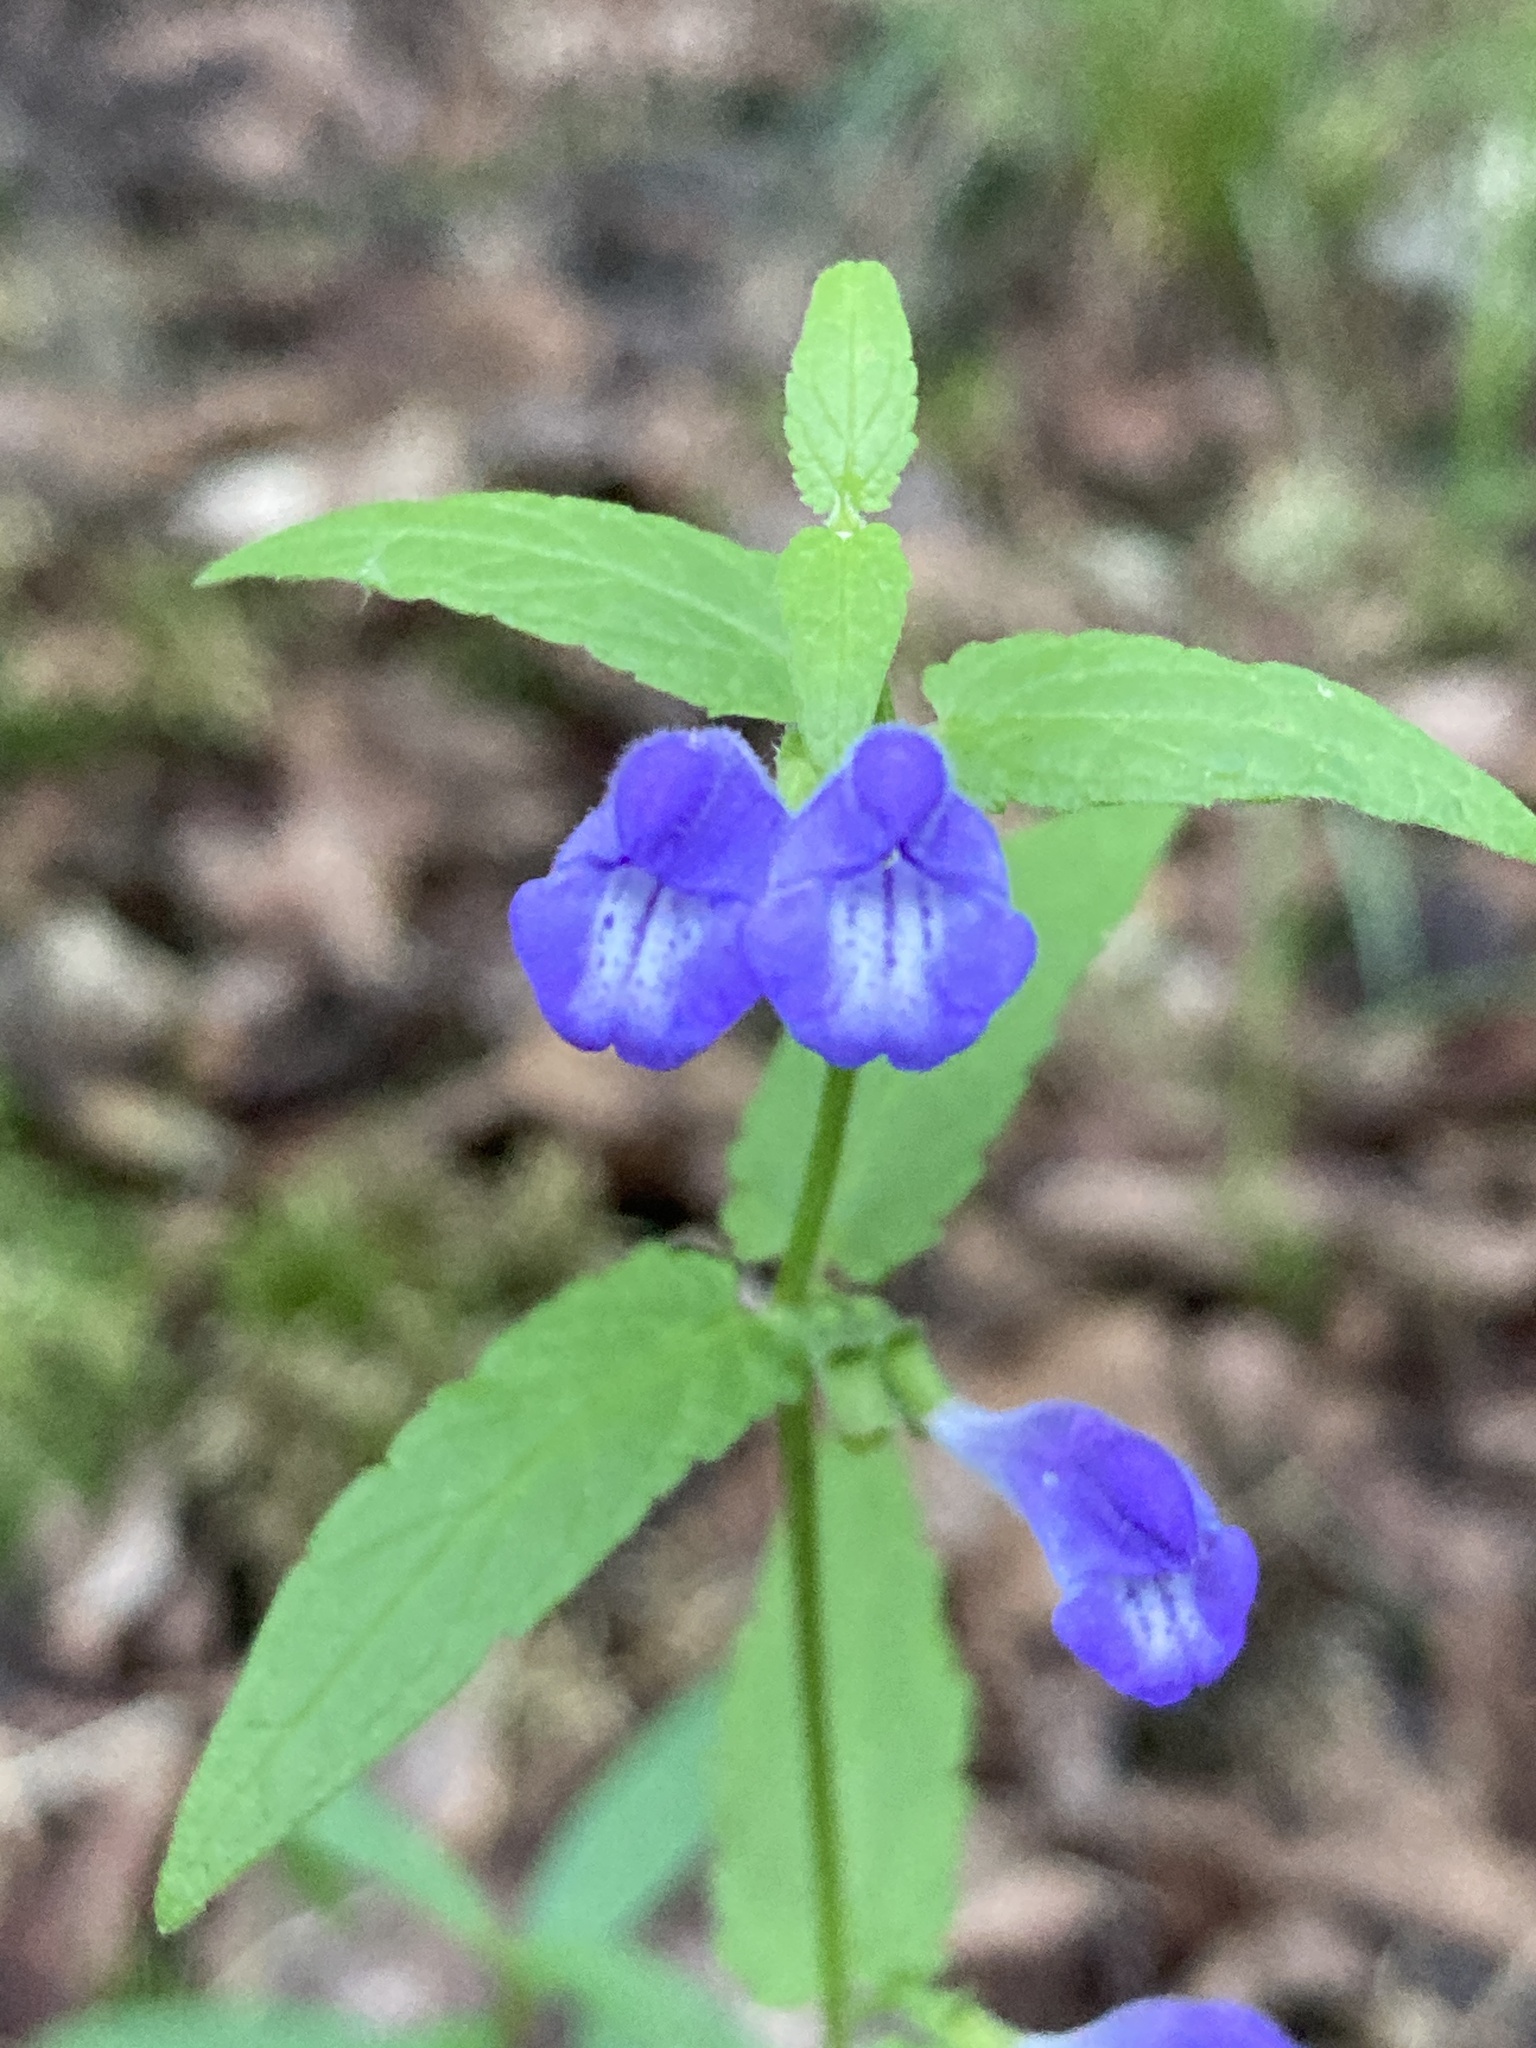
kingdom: Plantae
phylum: Tracheophyta
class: Magnoliopsida
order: Lamiales
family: Lamiaceae
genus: Scutellaria
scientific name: Scutellaria galericulata
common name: Skullcap
